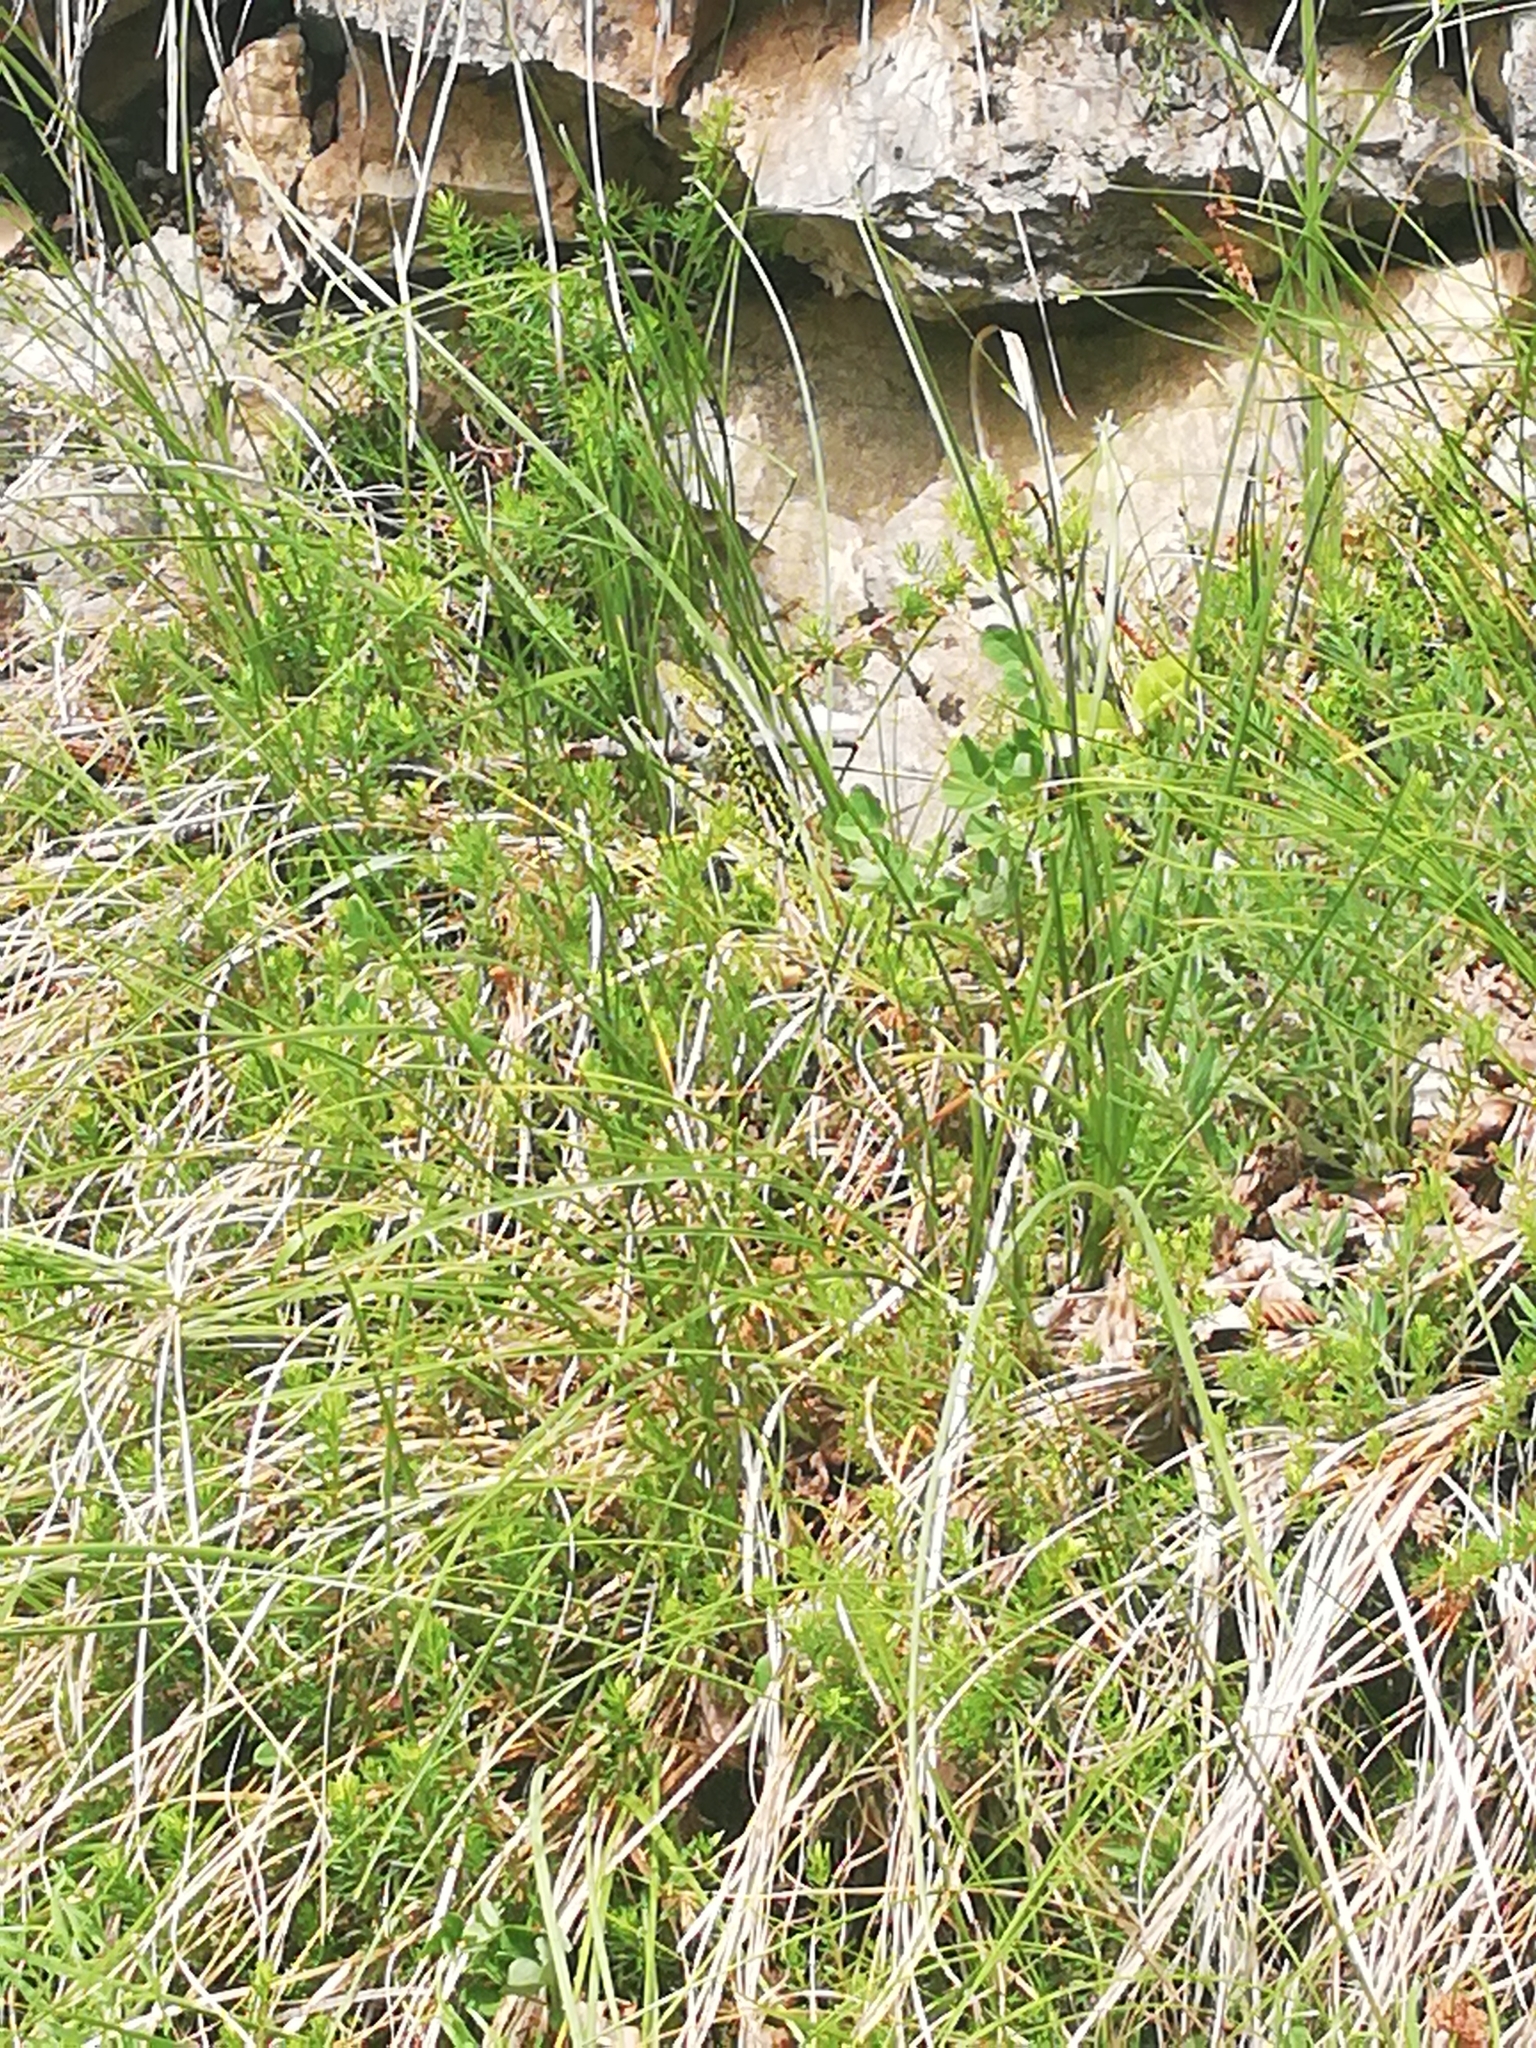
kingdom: Animalia
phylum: Chordata
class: Squamata
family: Lacertidae
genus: Lacerta
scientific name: Lacerta bilineata
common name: Western green lizard
